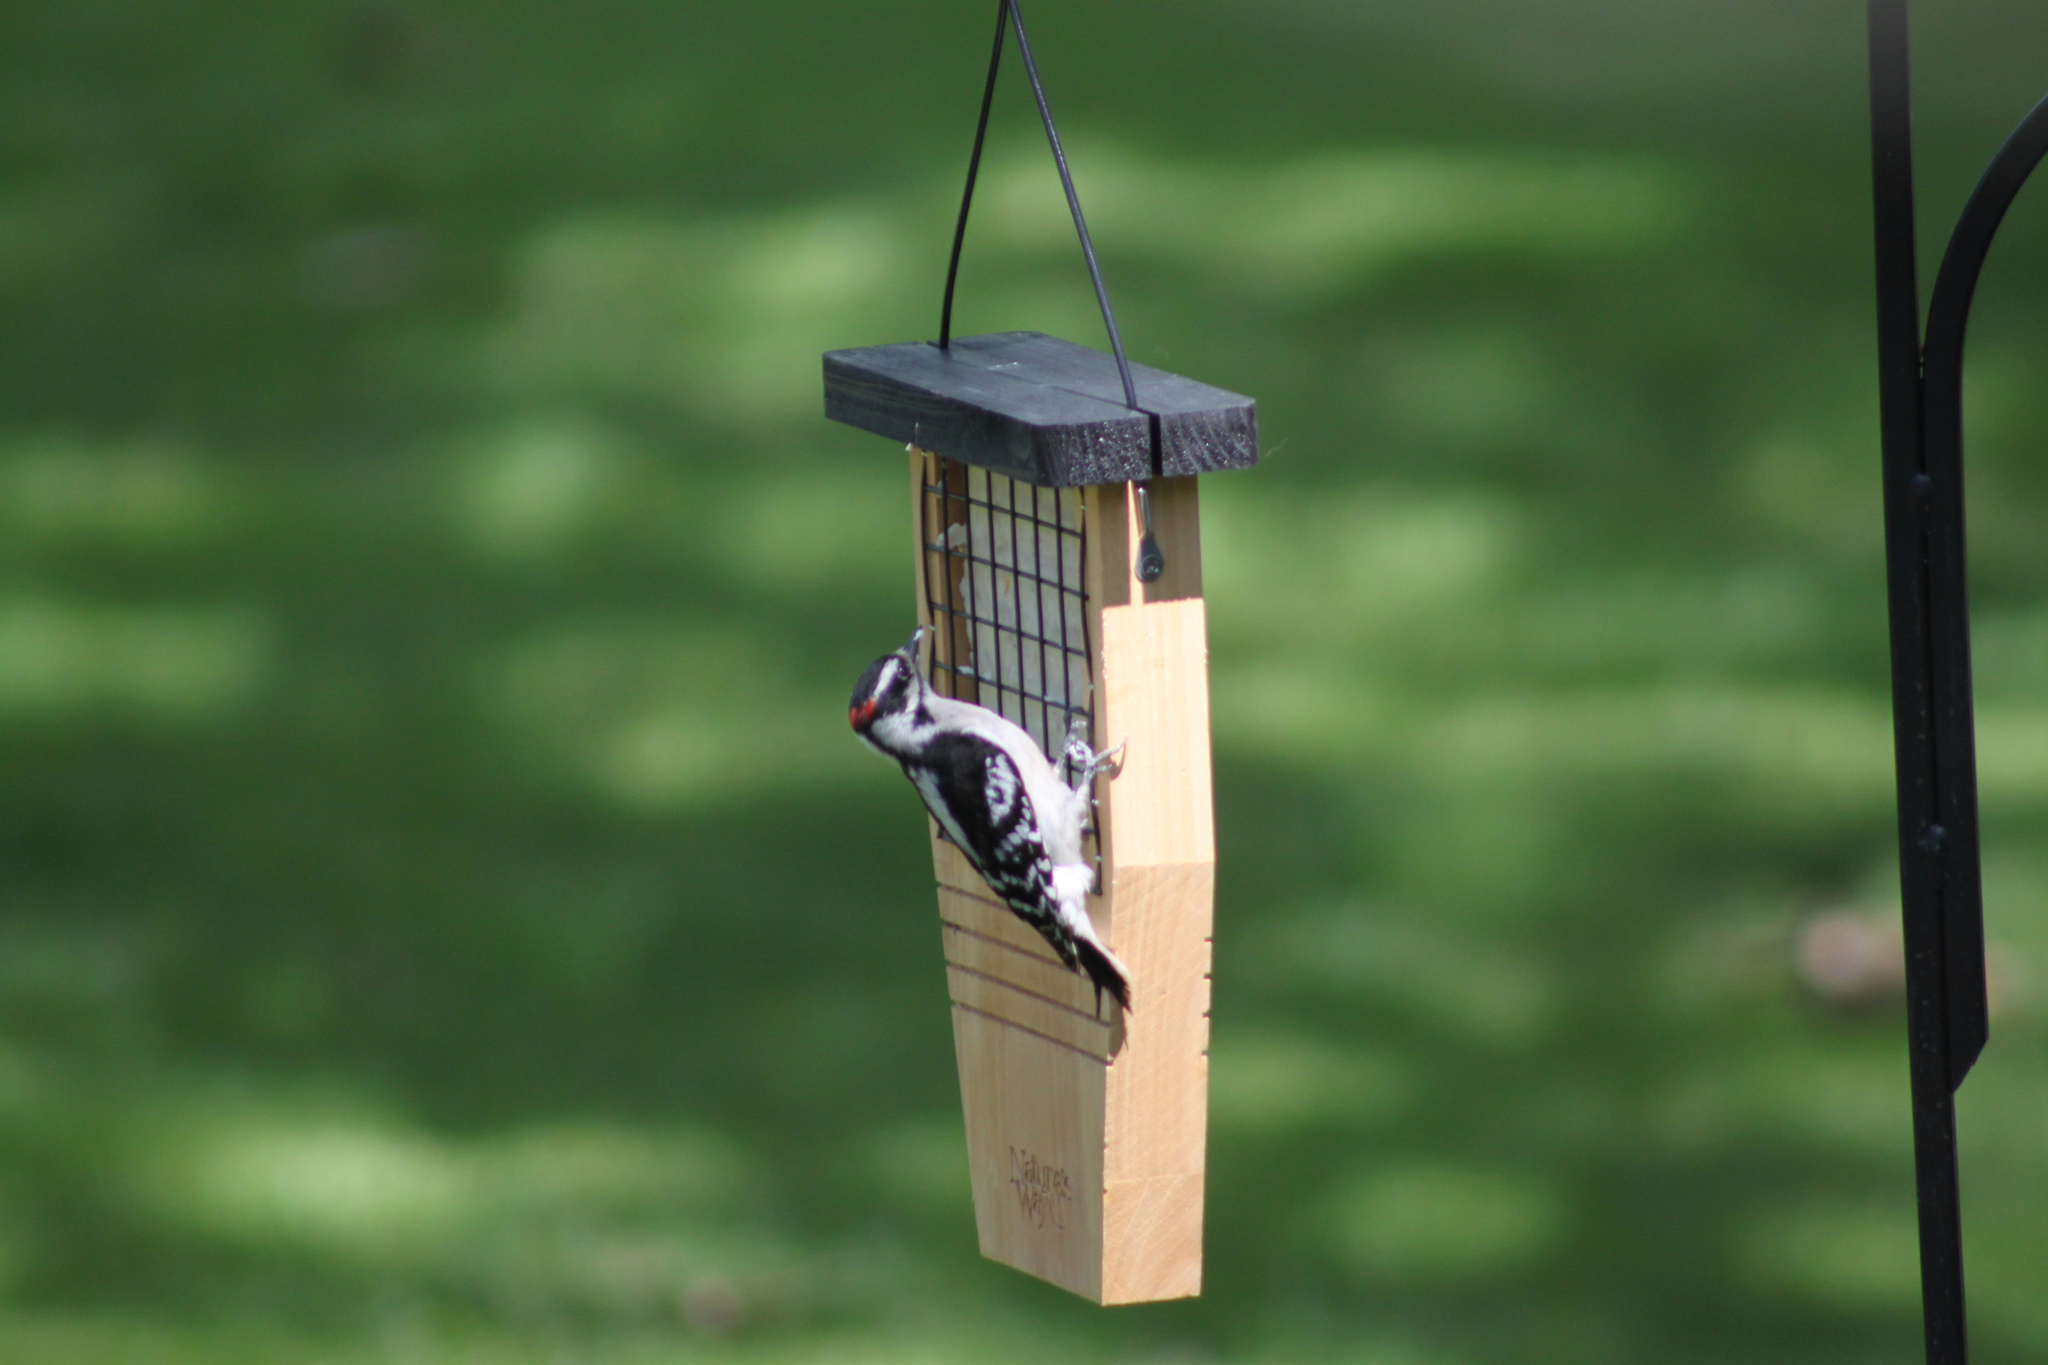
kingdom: Animalia
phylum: Chordata
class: Aves
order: Piciformes
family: Picidae
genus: Dryobates
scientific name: Dryobates pubescens
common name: Downy woodpecker
